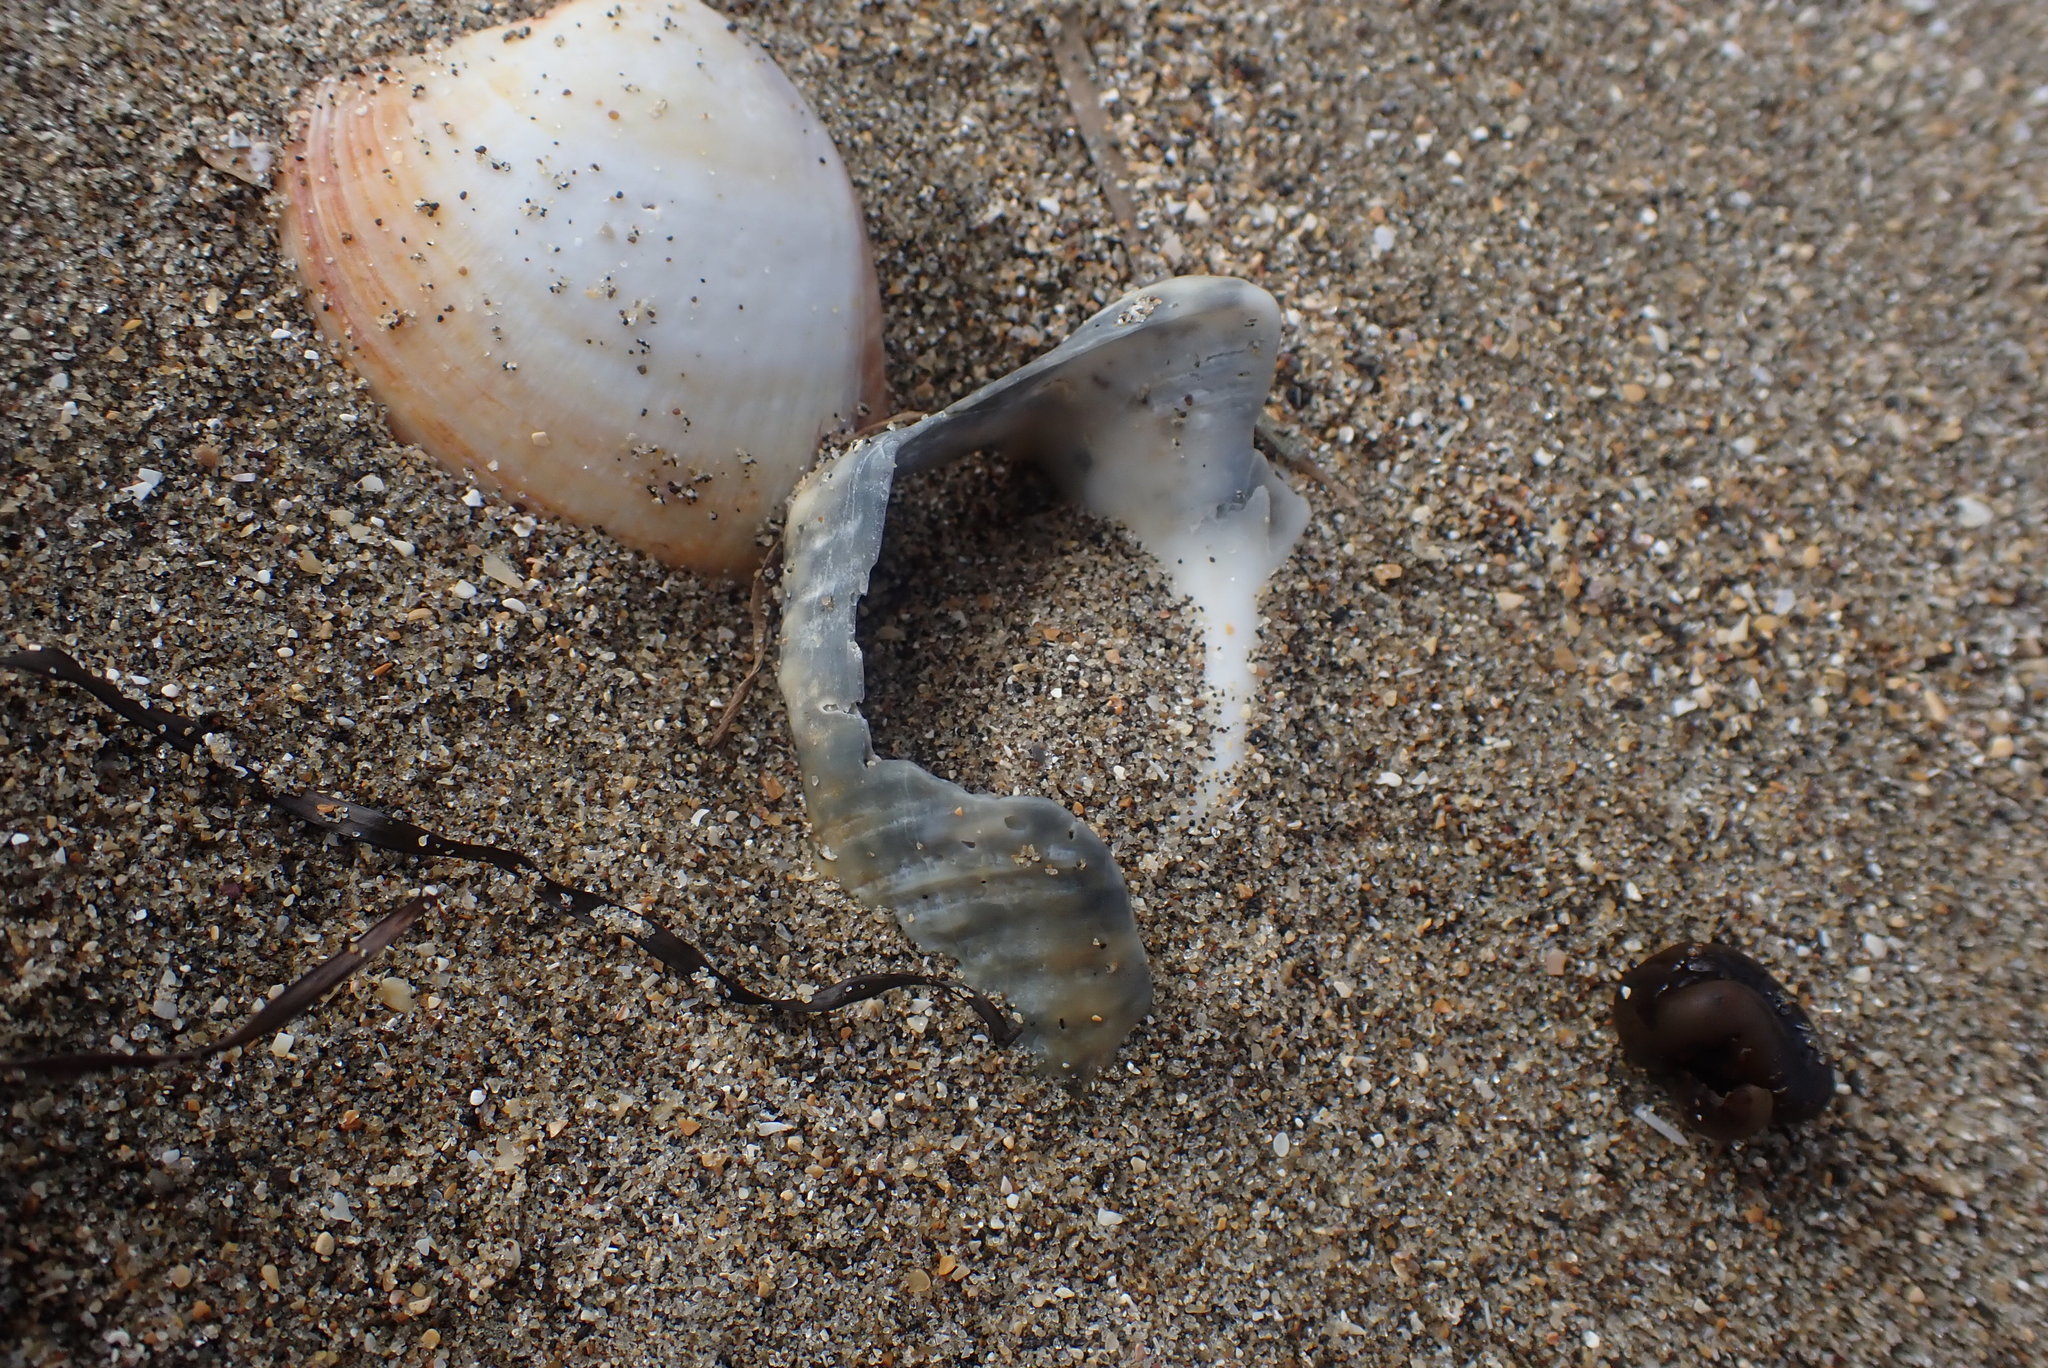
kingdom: Animalia
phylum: Mollusca
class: Gastropoda
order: Neogastropoda
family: Austrosiphonidae
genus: Penion
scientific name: Penion sulcatus
